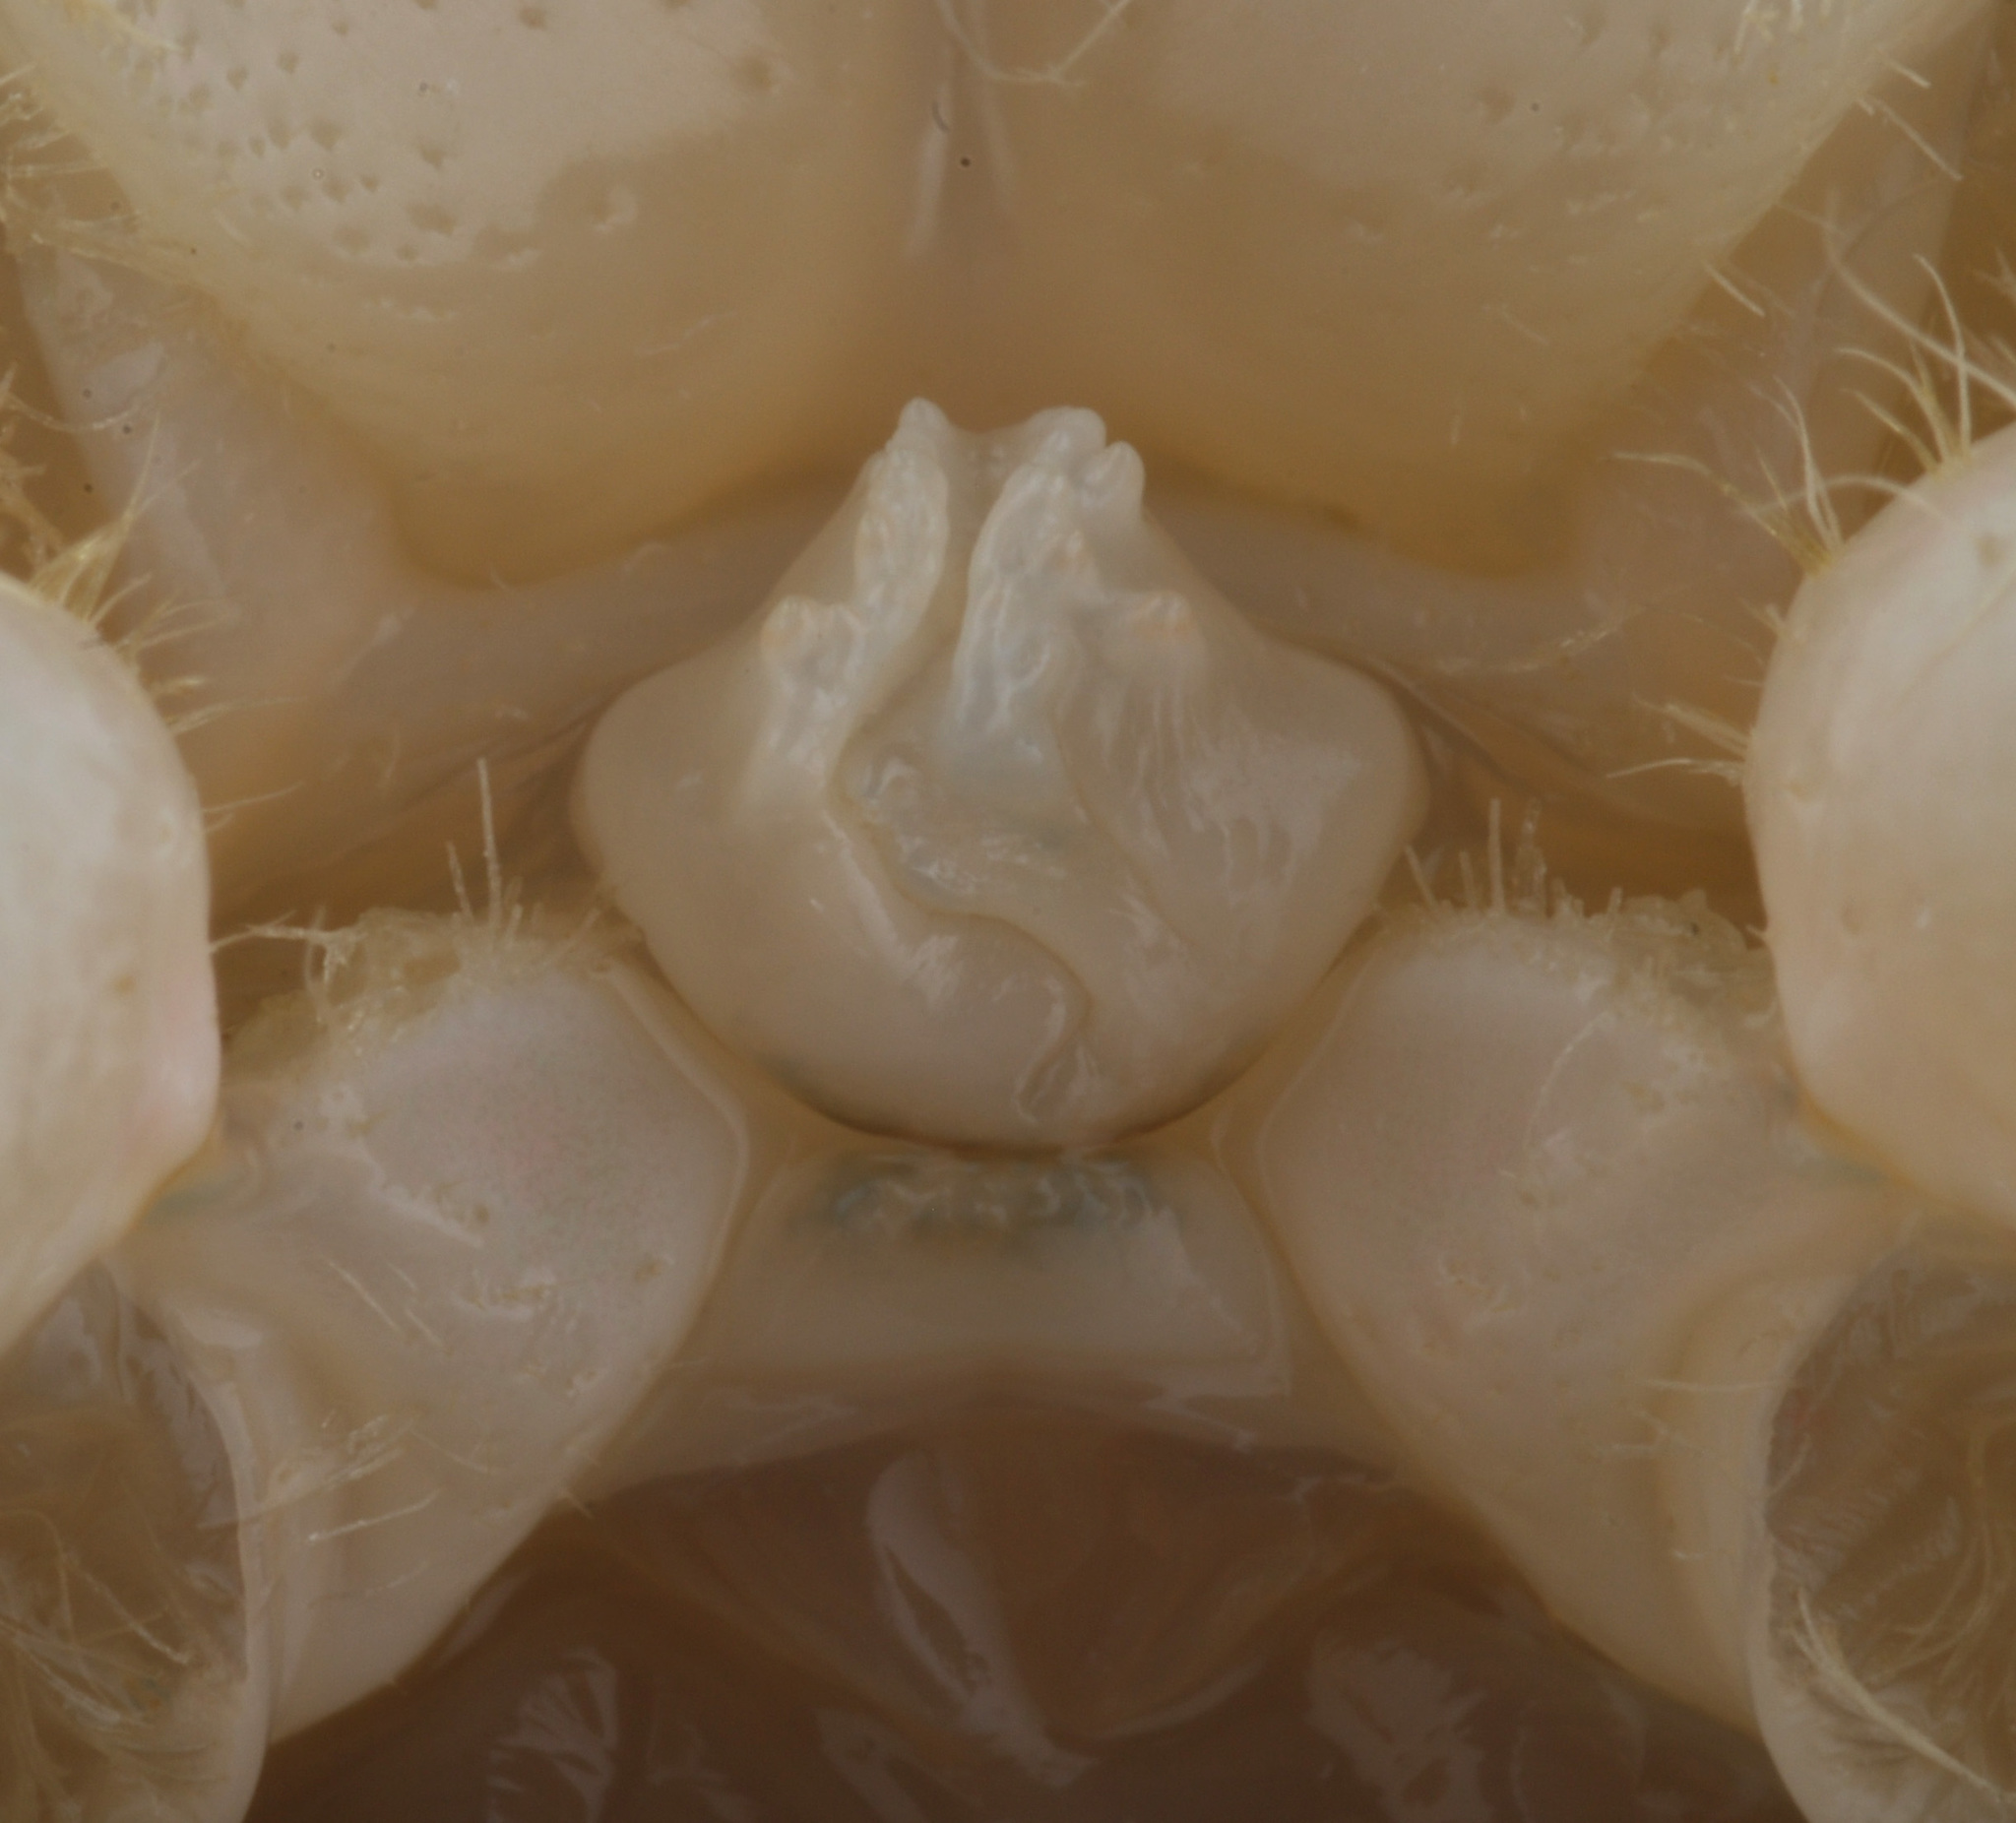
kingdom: Animalia
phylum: Arthropoda
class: Malacostraca
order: Decapoda
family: Cambaridae
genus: Procambarus
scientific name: Procambarus simulans
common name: Southern plains crayfish
